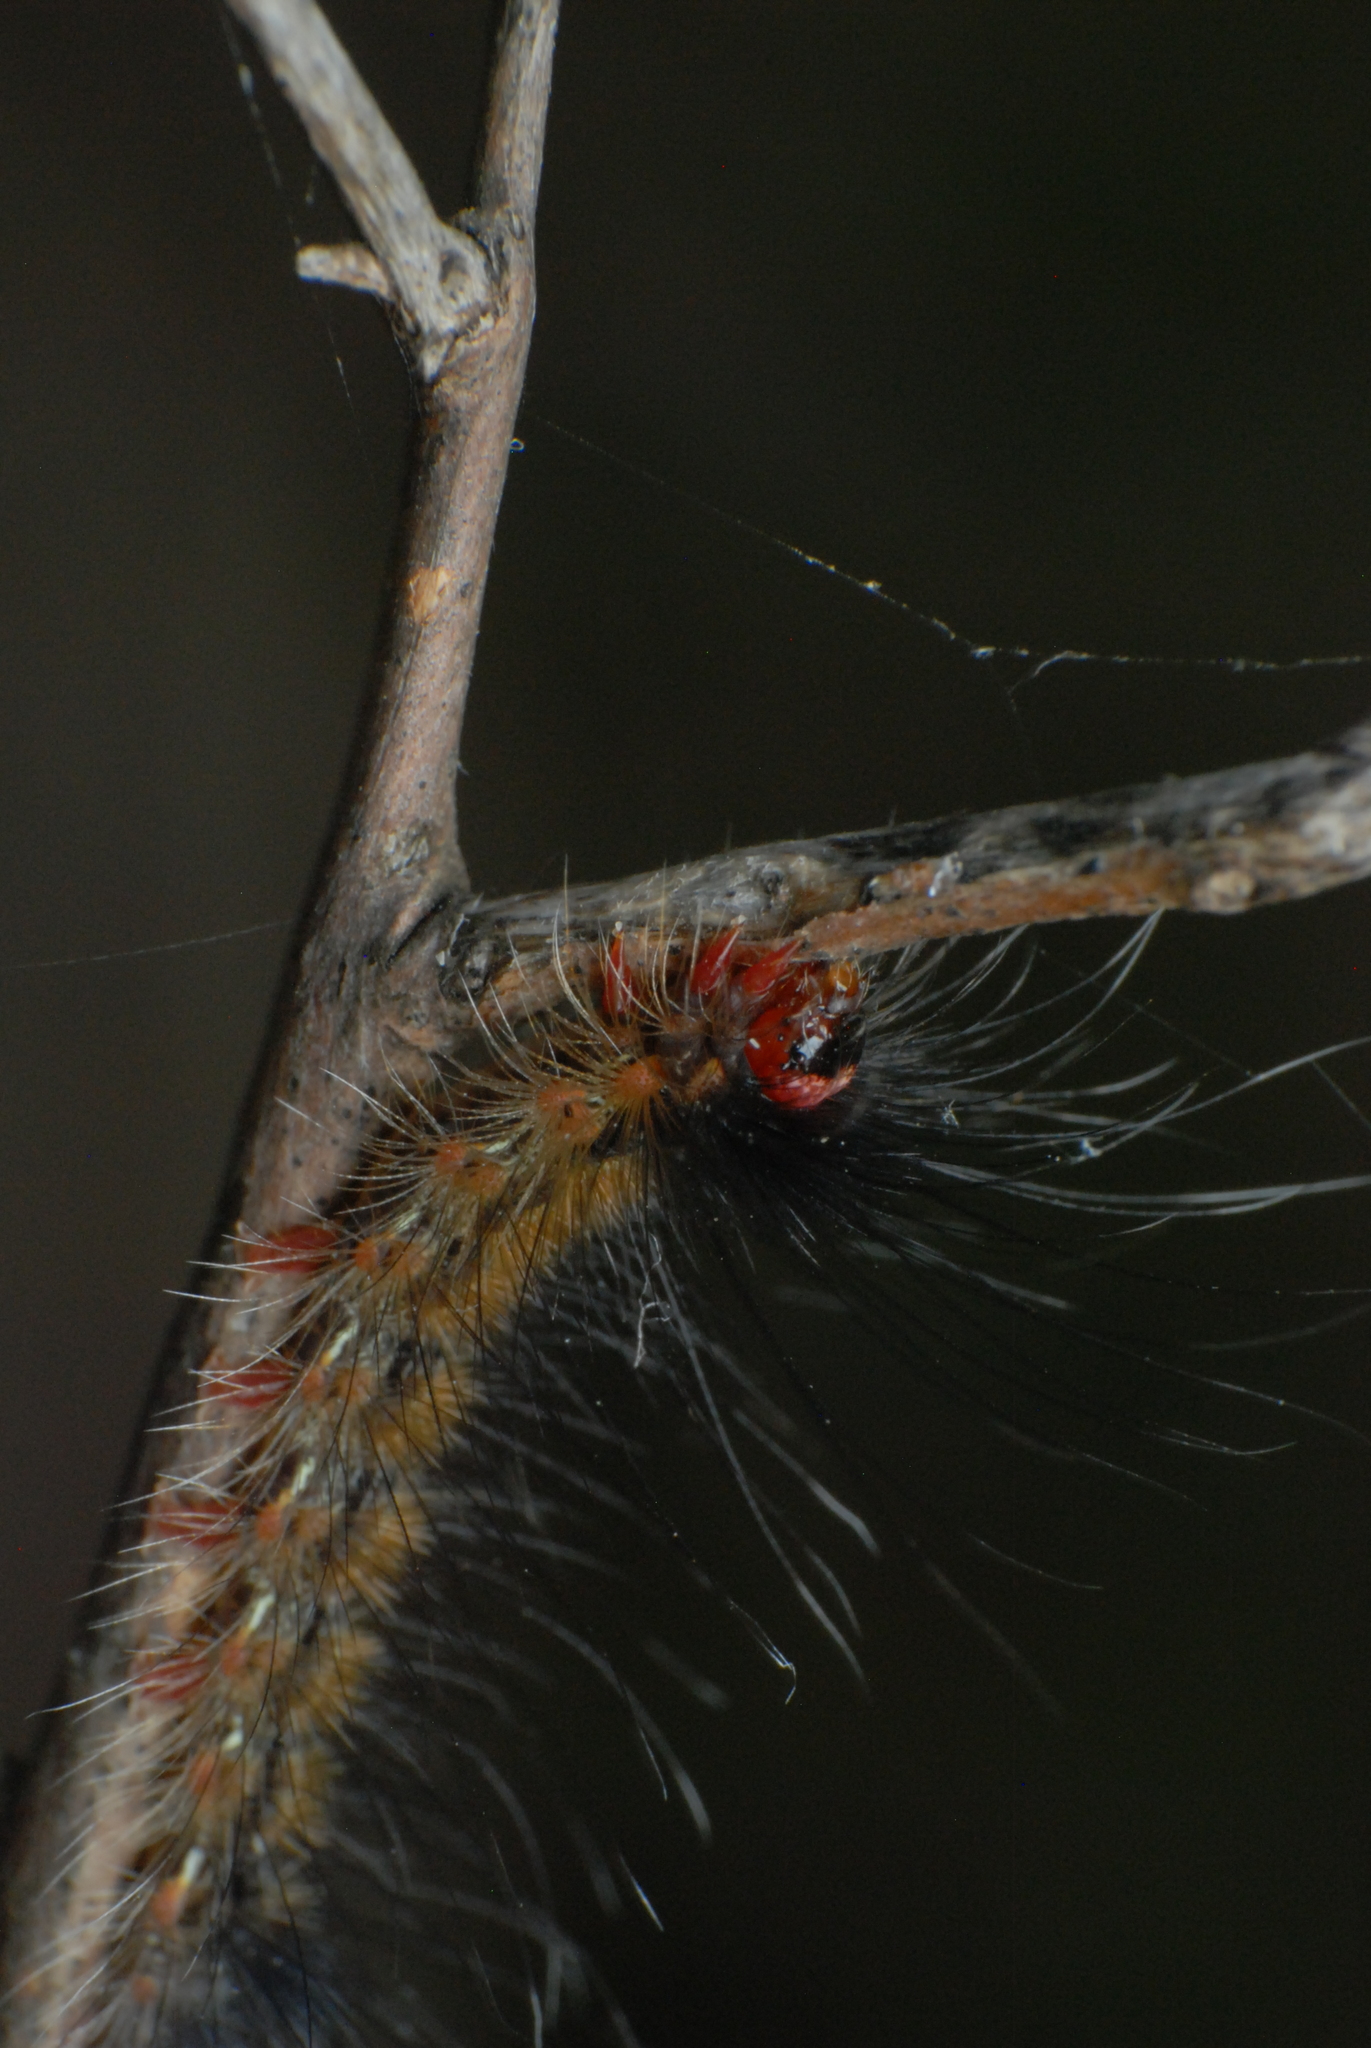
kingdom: Animalia
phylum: Arthropoda
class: Insecta
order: Lepidoptera
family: Erebidae
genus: Orgyia
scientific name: Orgyia
